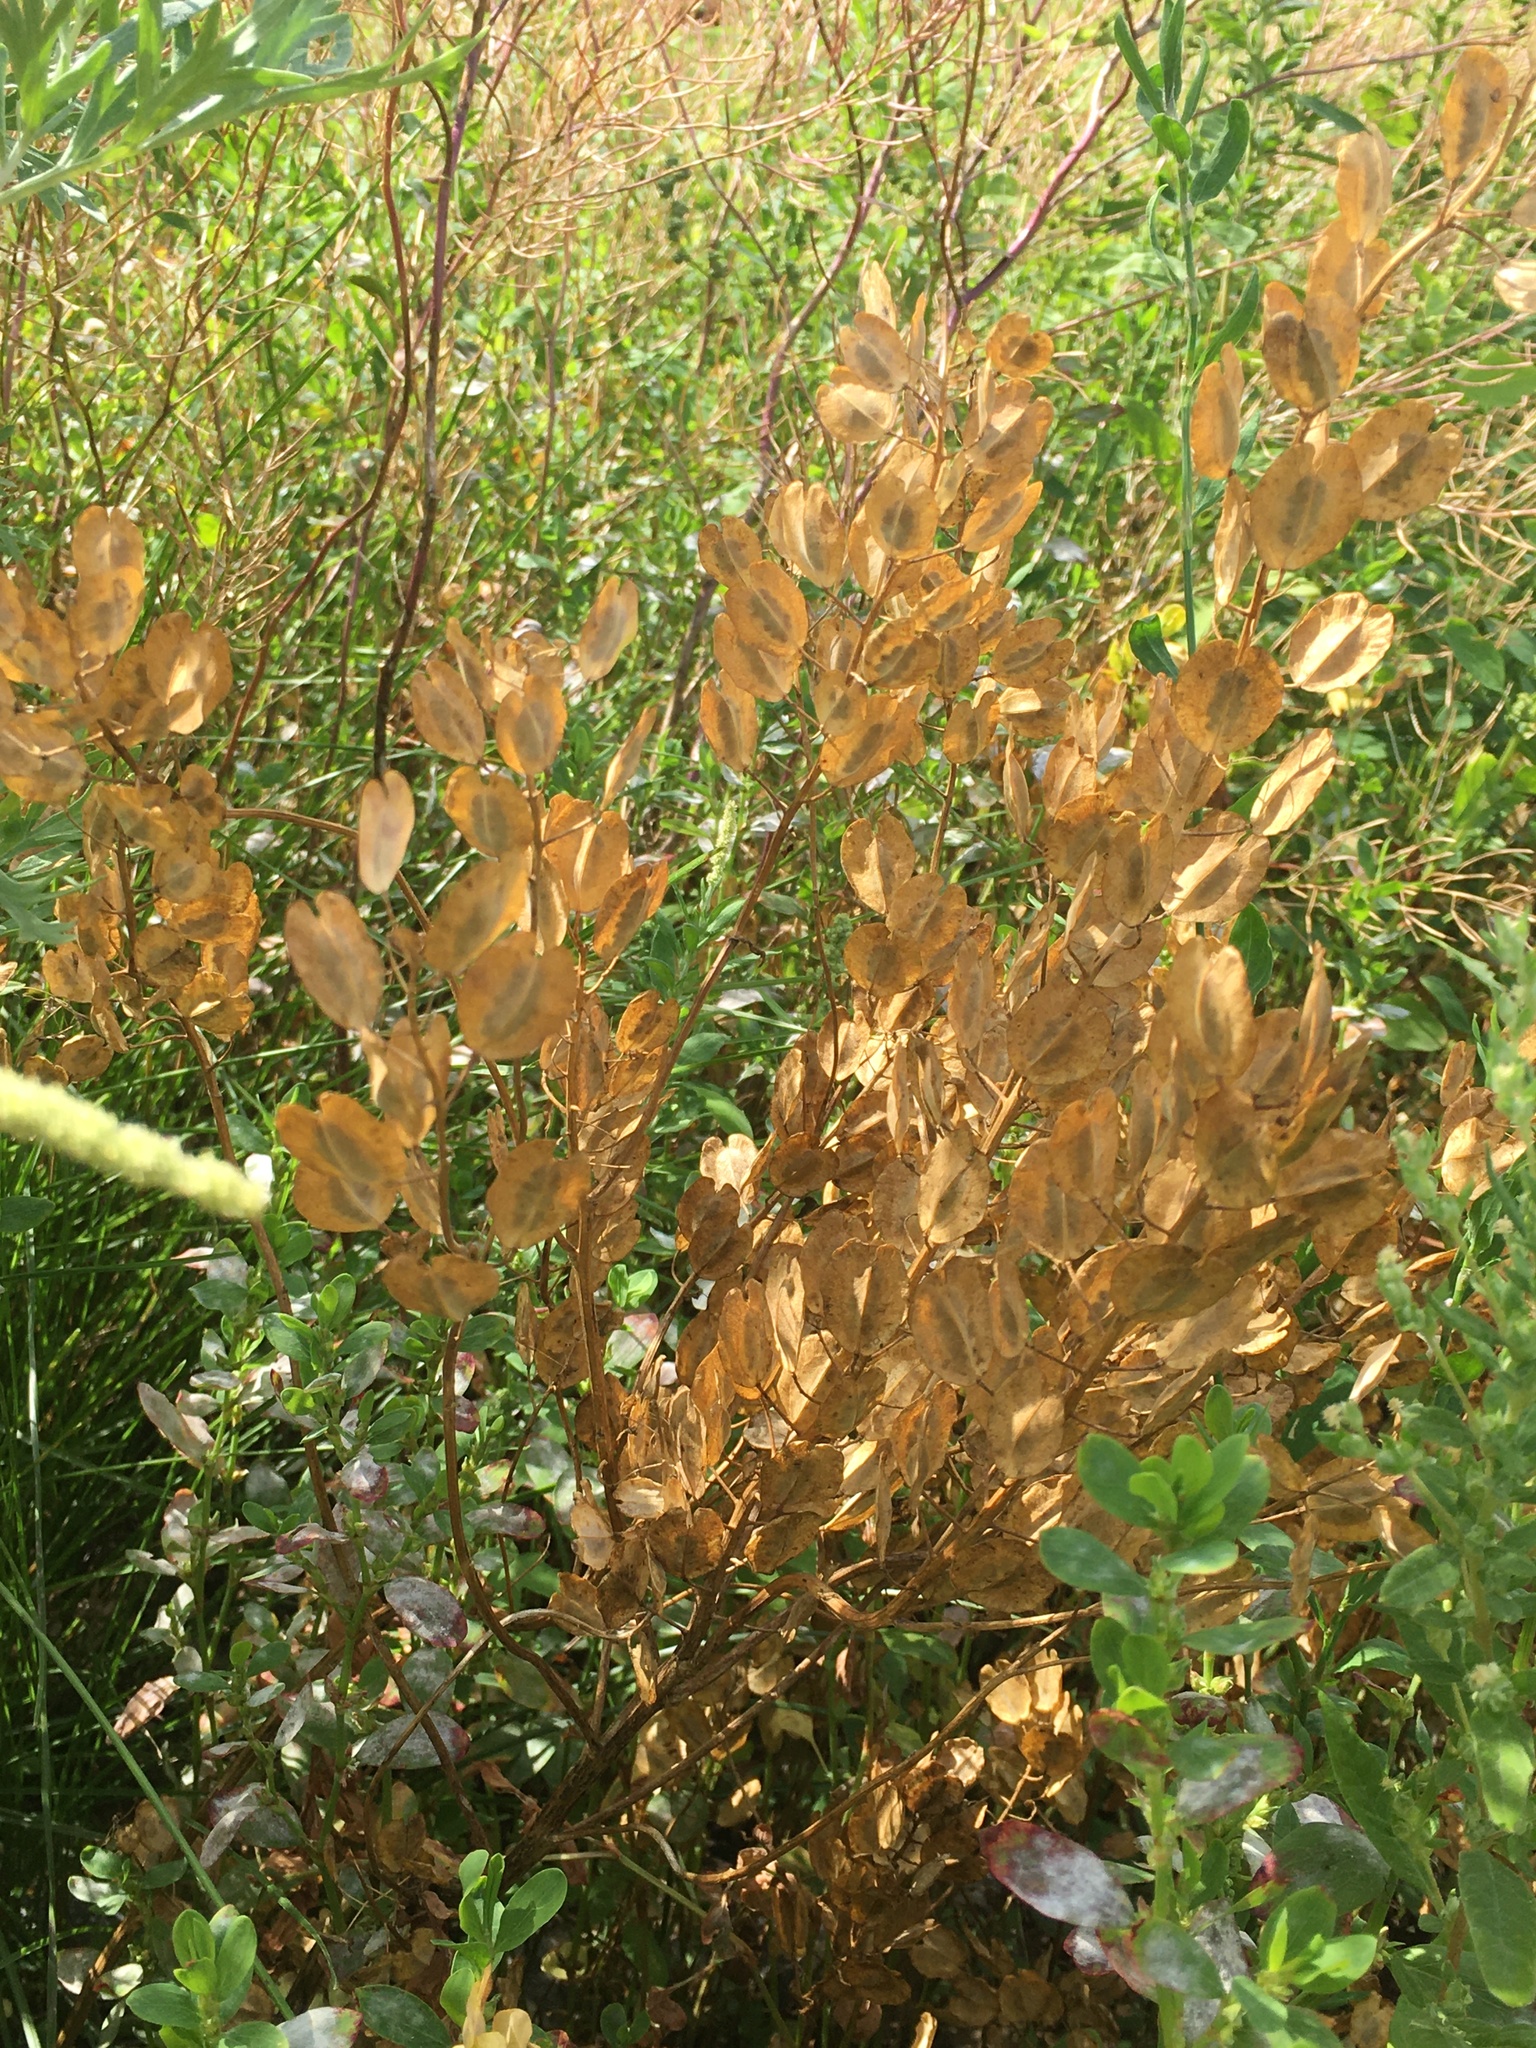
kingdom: Plantae
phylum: Tracheophyta
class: Magnoliopsida
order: Brassicales
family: Brassicaceae
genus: Thlaspi
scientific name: Thlaspi arvense
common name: Field pennycress
